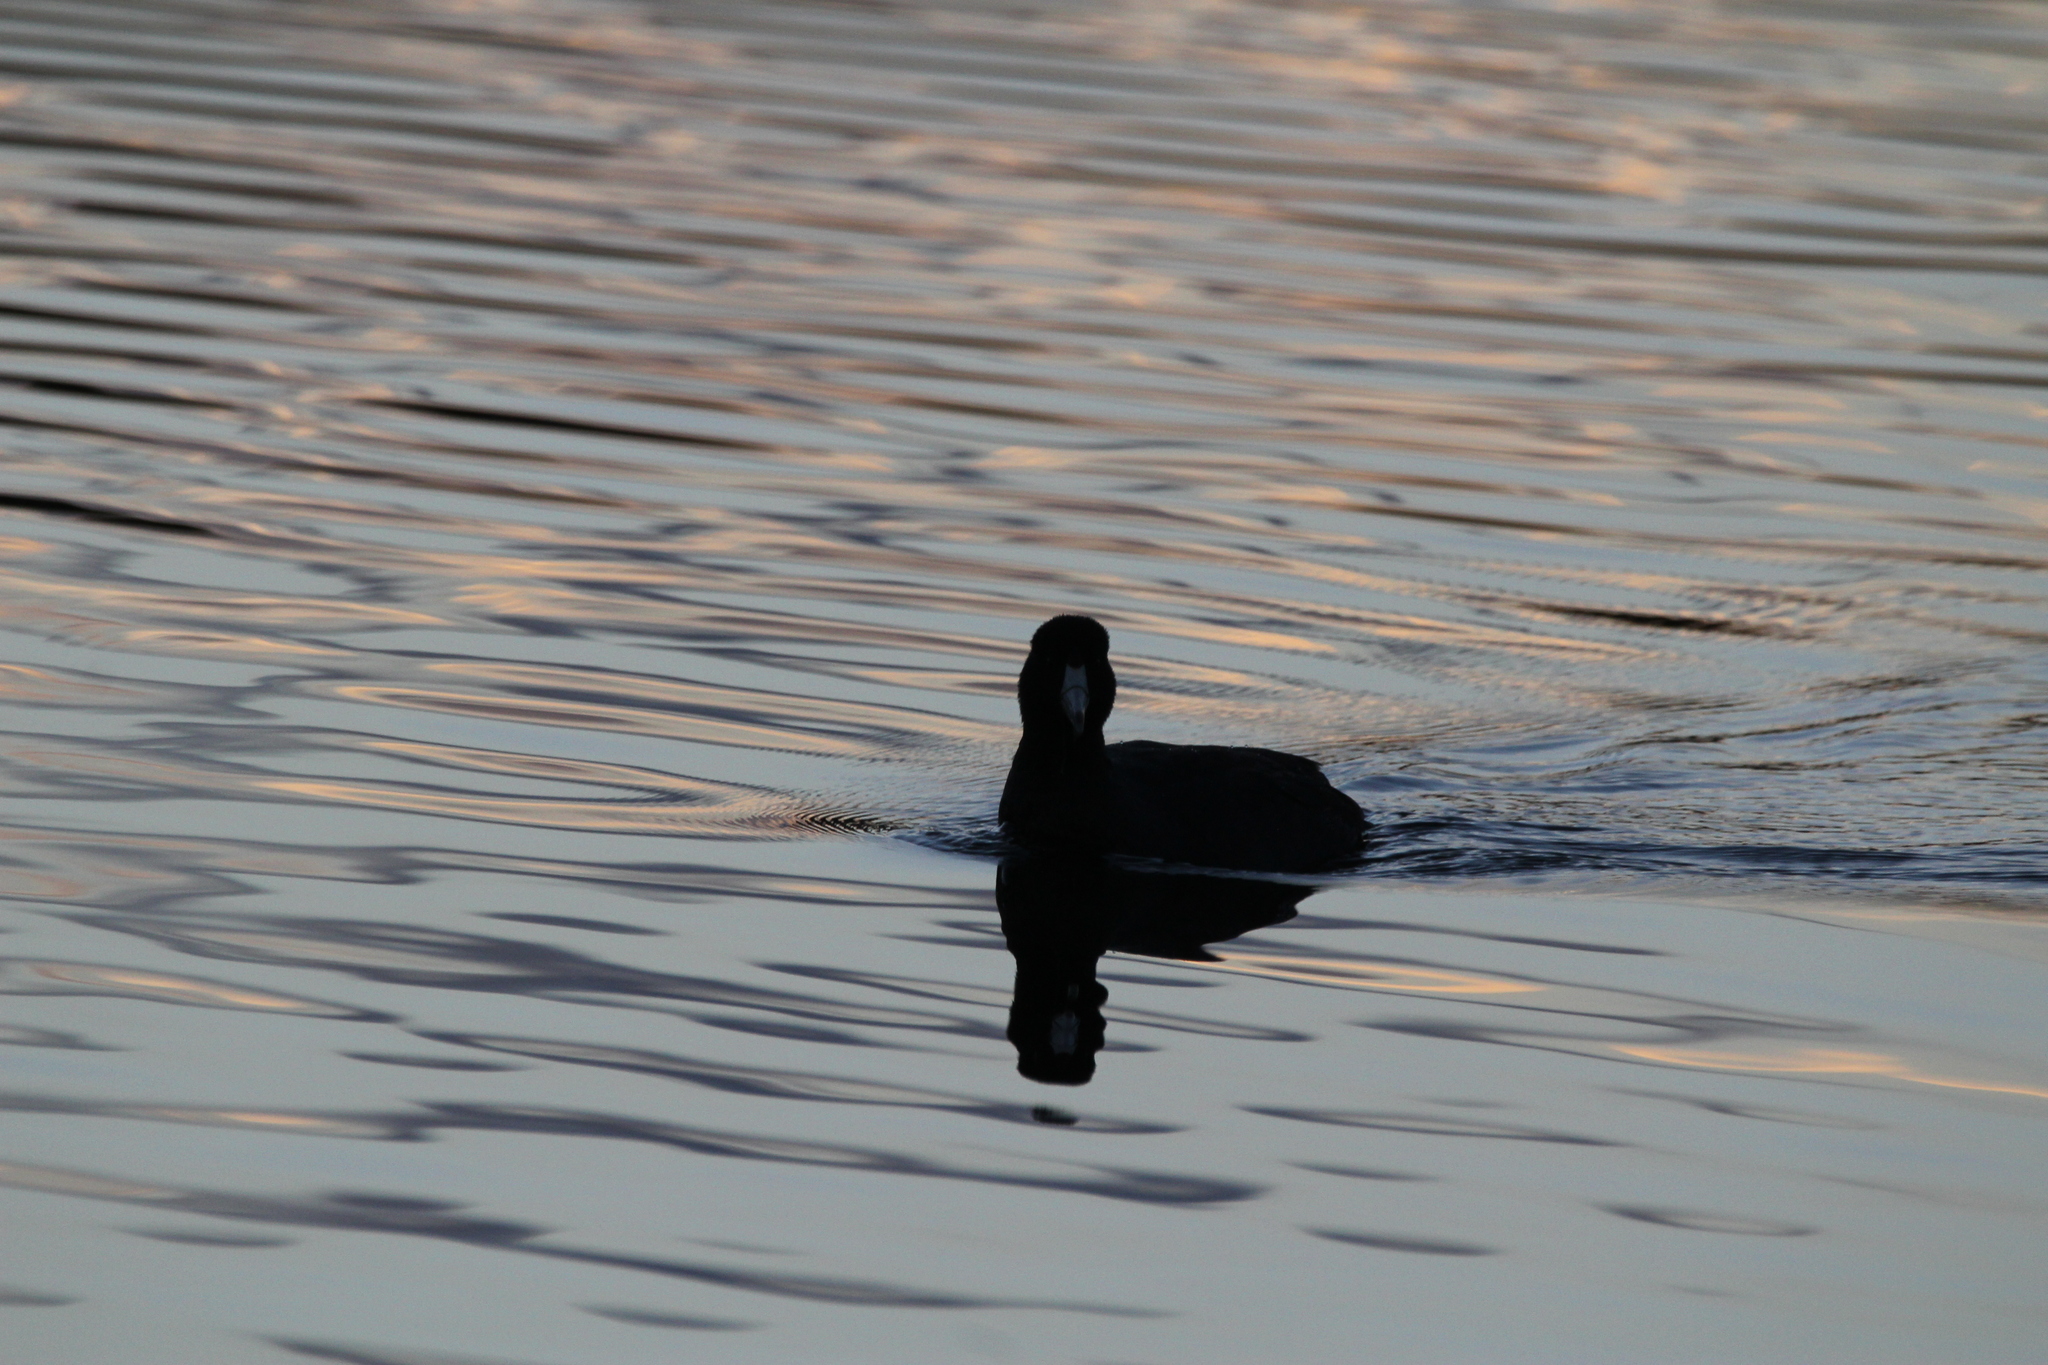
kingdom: Animalia
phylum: Chordata
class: Aves
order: Gruiformes
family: Rallidae
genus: Fulica
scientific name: Fulica americana
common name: American coot
